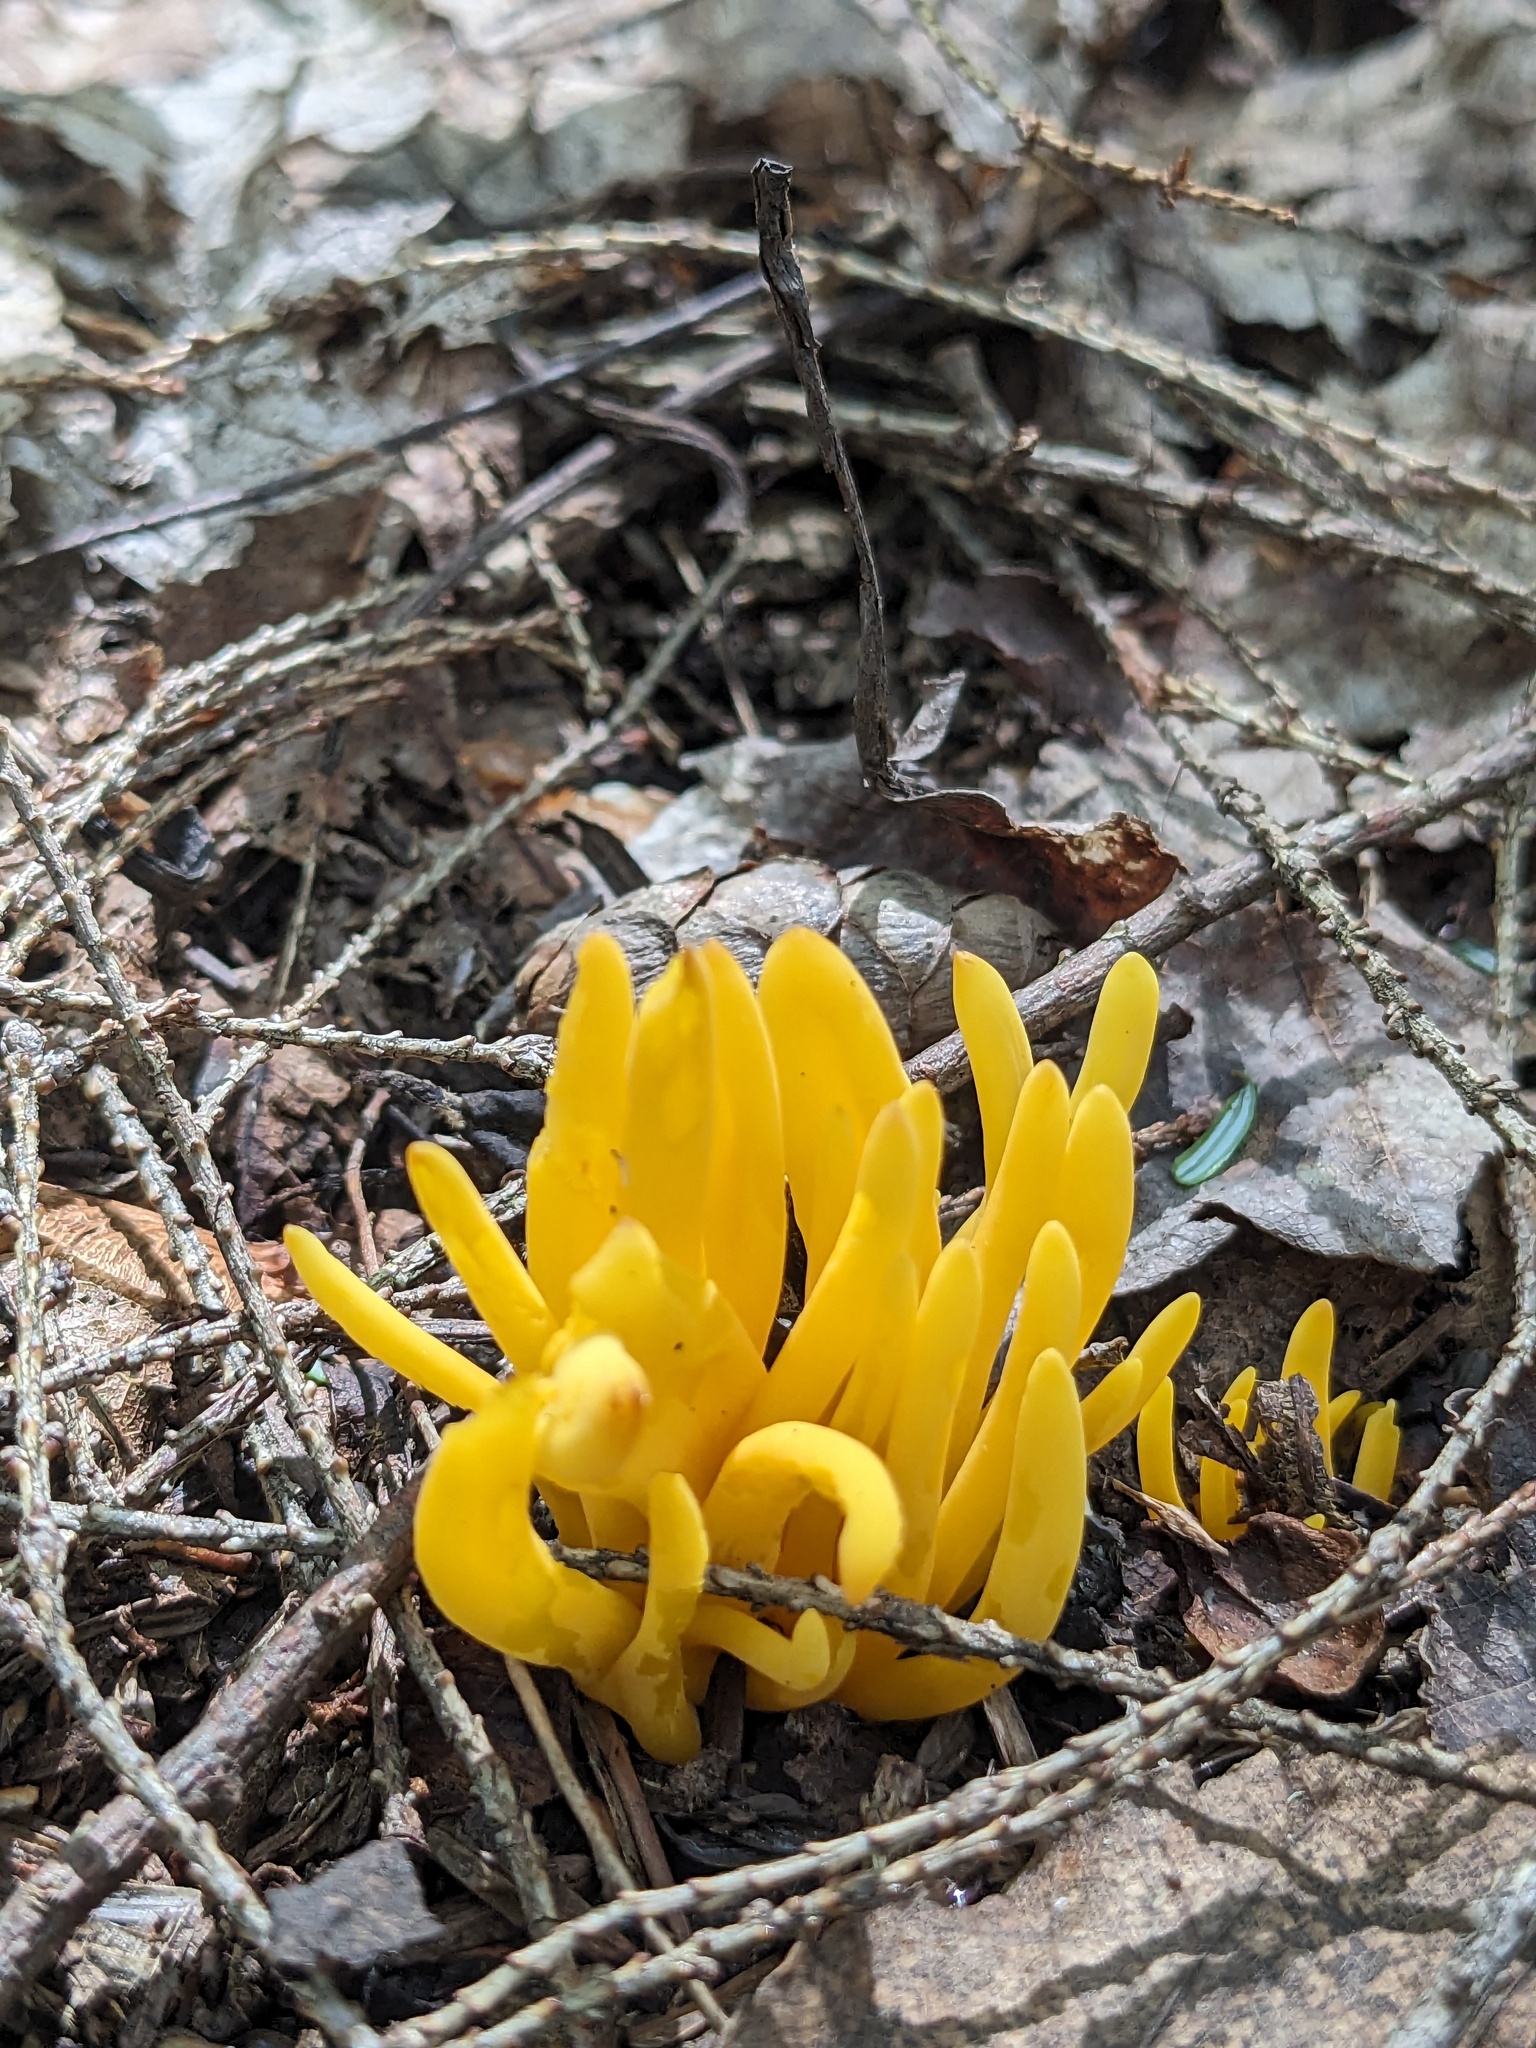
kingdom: Fungi
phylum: Basidiomycota
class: Agaricomycetes
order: Agaricales
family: Clavariaceae
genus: Clavulinopsis
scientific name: Clavulinopsis fusiformis
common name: Golden spindles
